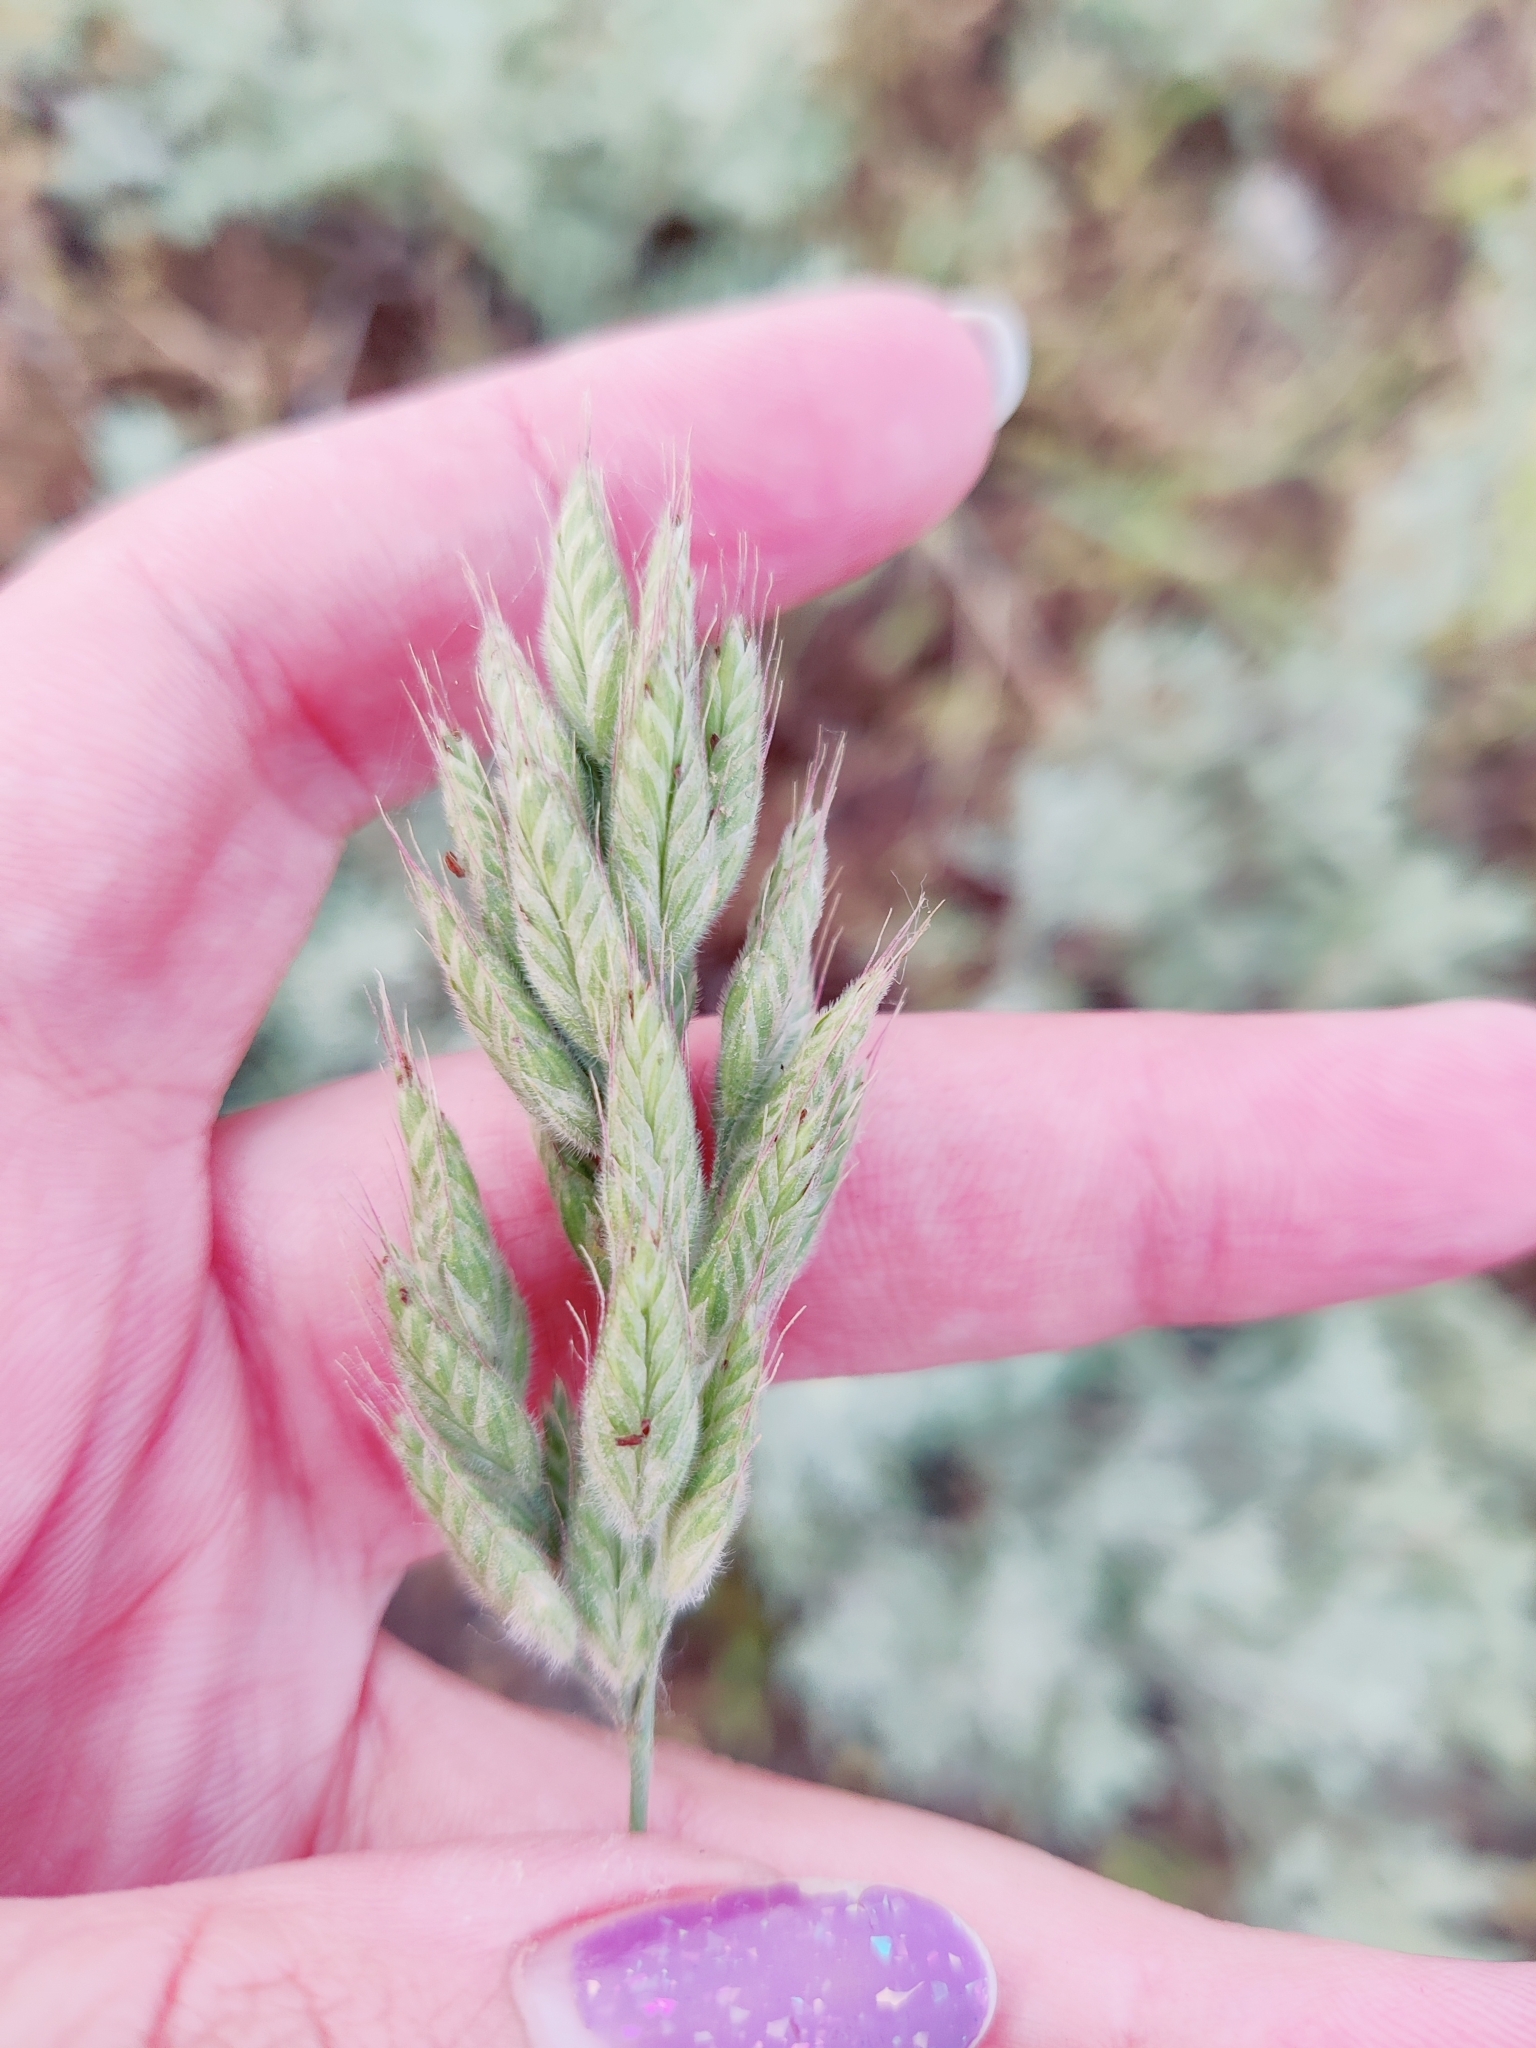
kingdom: Plantae
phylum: Tracheophyta
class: Liliopsida
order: Poales
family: Poaceae
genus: Bromus
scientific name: Bromus hordeaceus
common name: Soft brome
